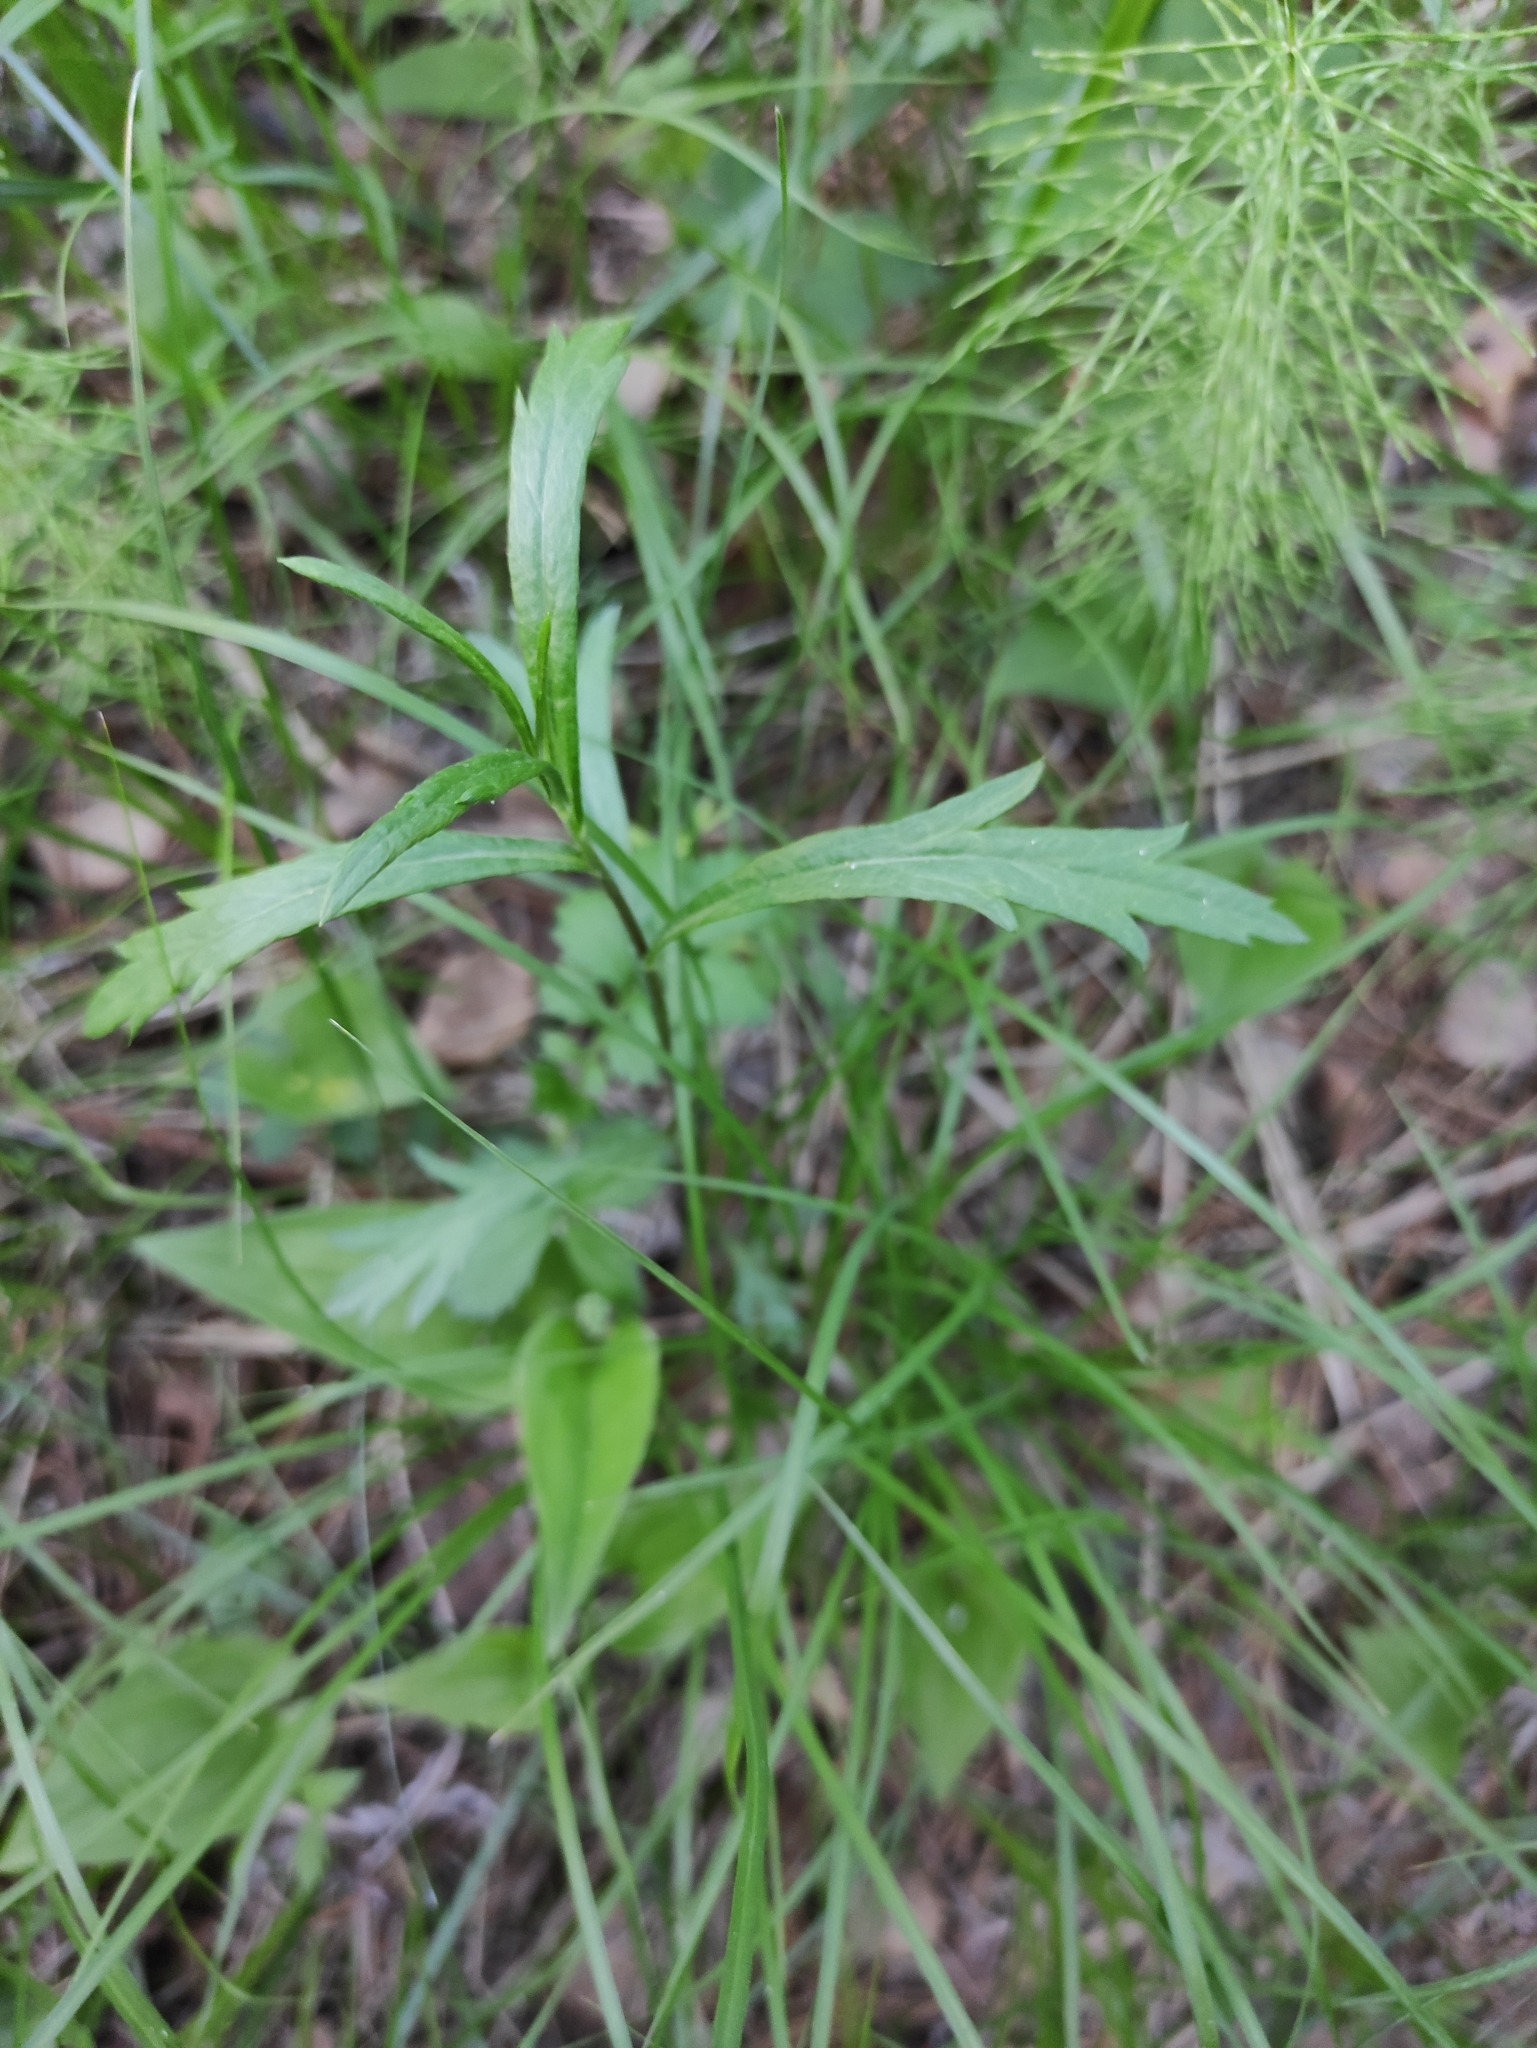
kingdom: Plantae
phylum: Tracheophyta
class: Magnoliopsida
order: Asterales
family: Asteraceae
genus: Artemisia
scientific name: Artemisia integrifolia
